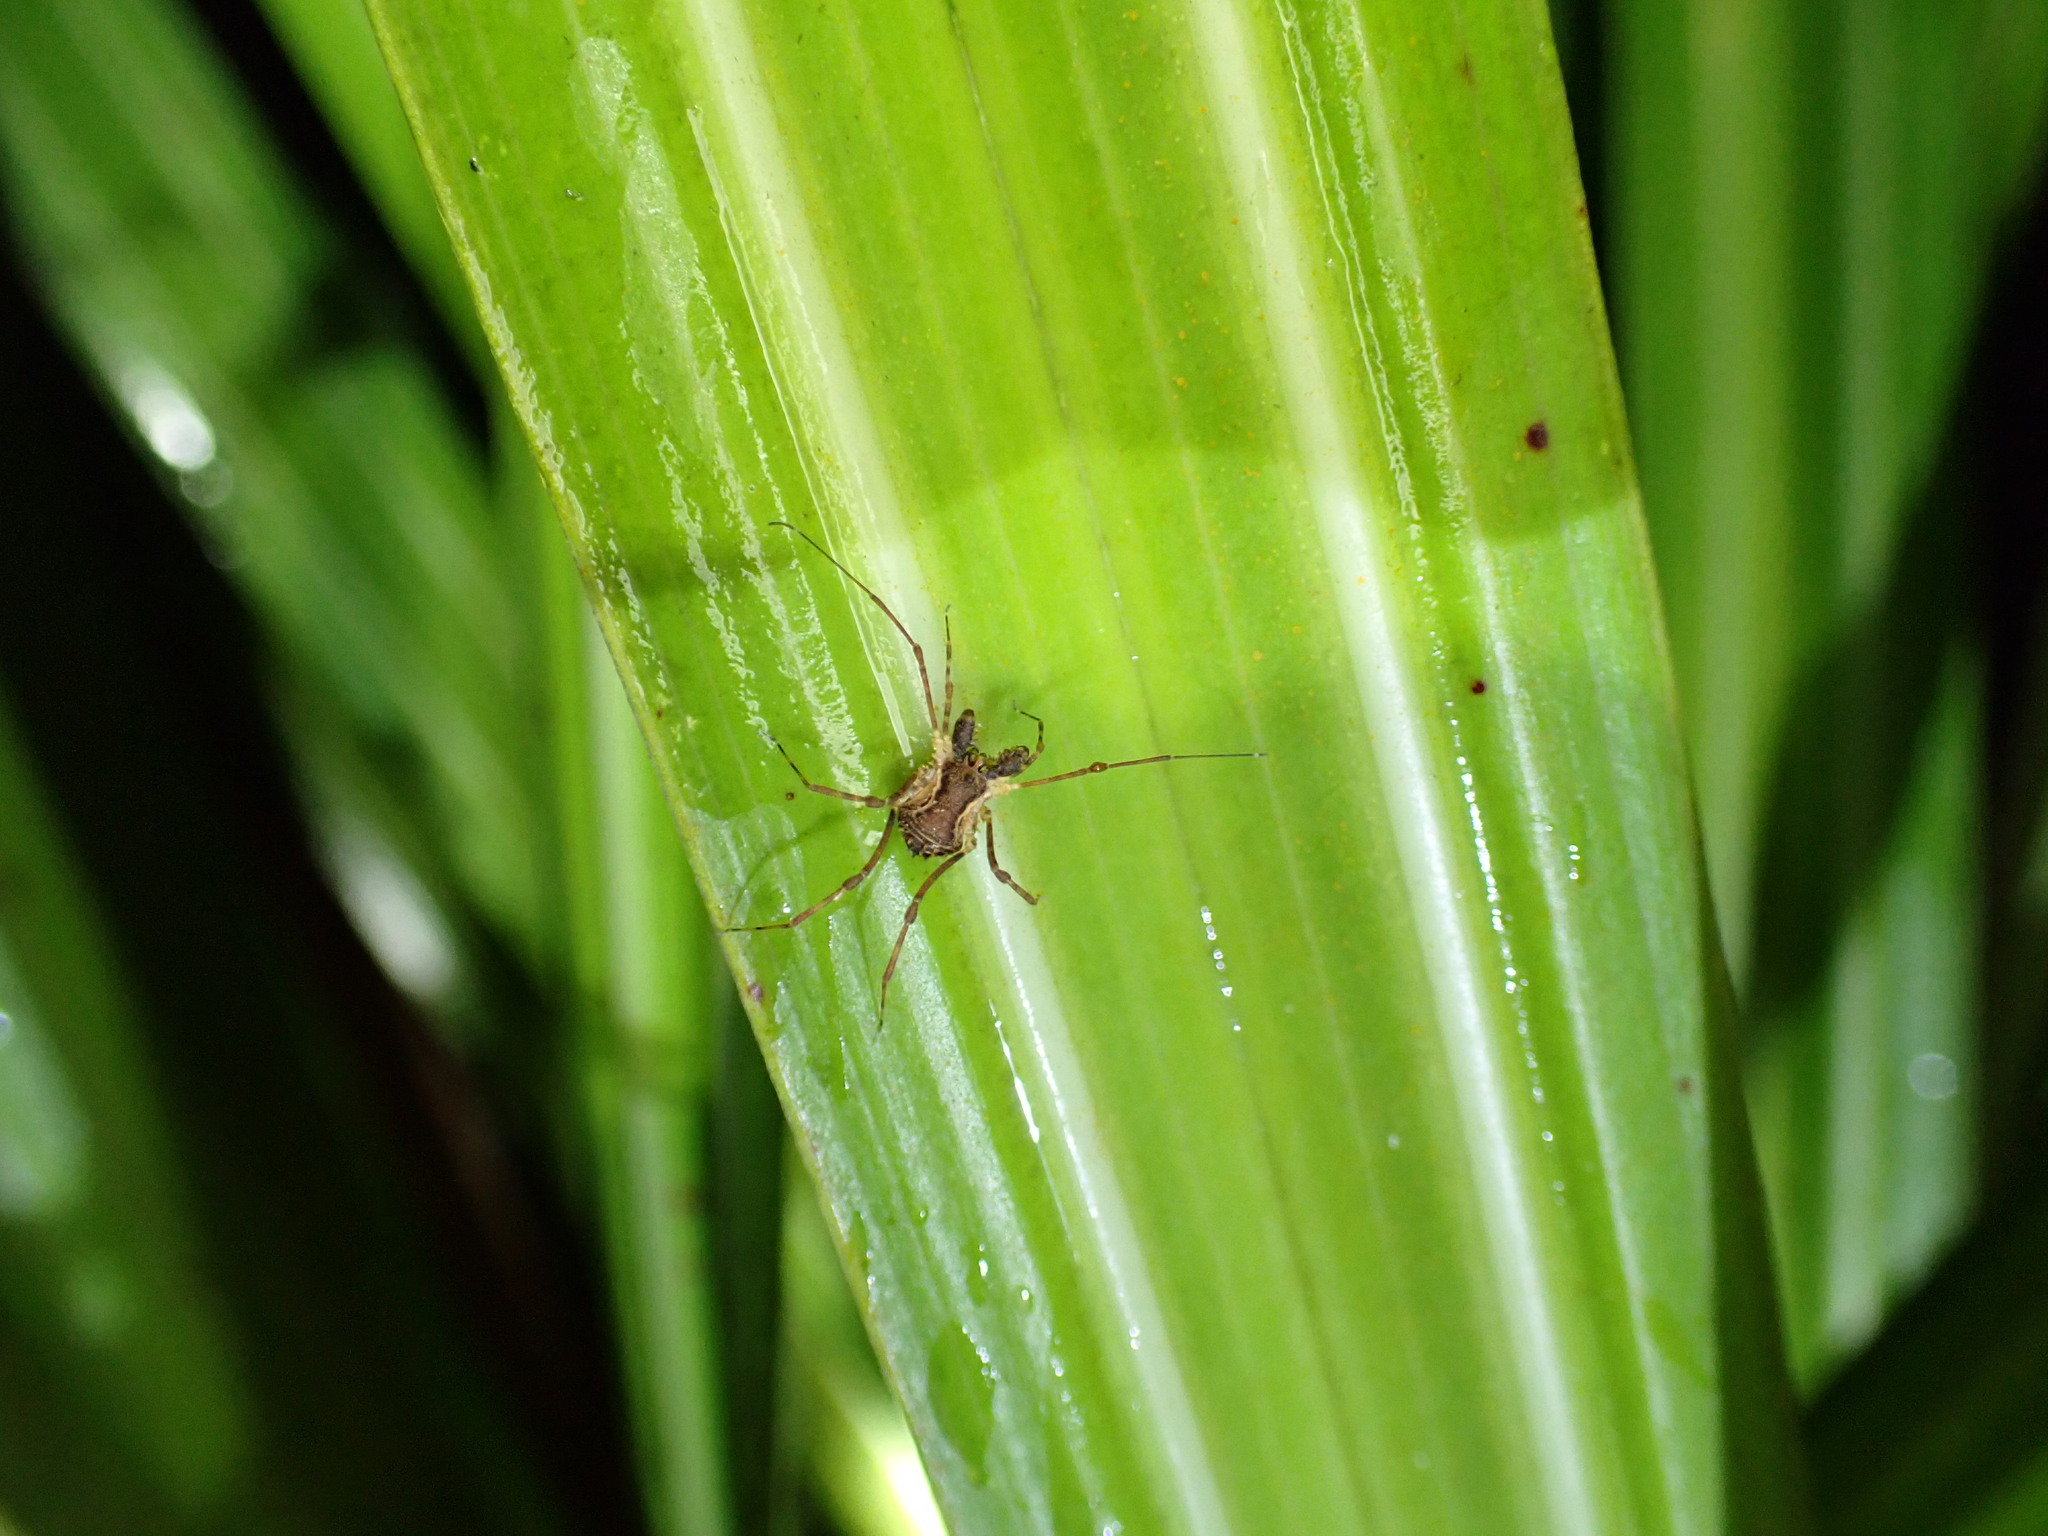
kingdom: Animalia
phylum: Arthropoda
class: Arachnida
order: Opiliones
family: Triaenonychidae
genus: Algidia
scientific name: Algidia chiltoni
